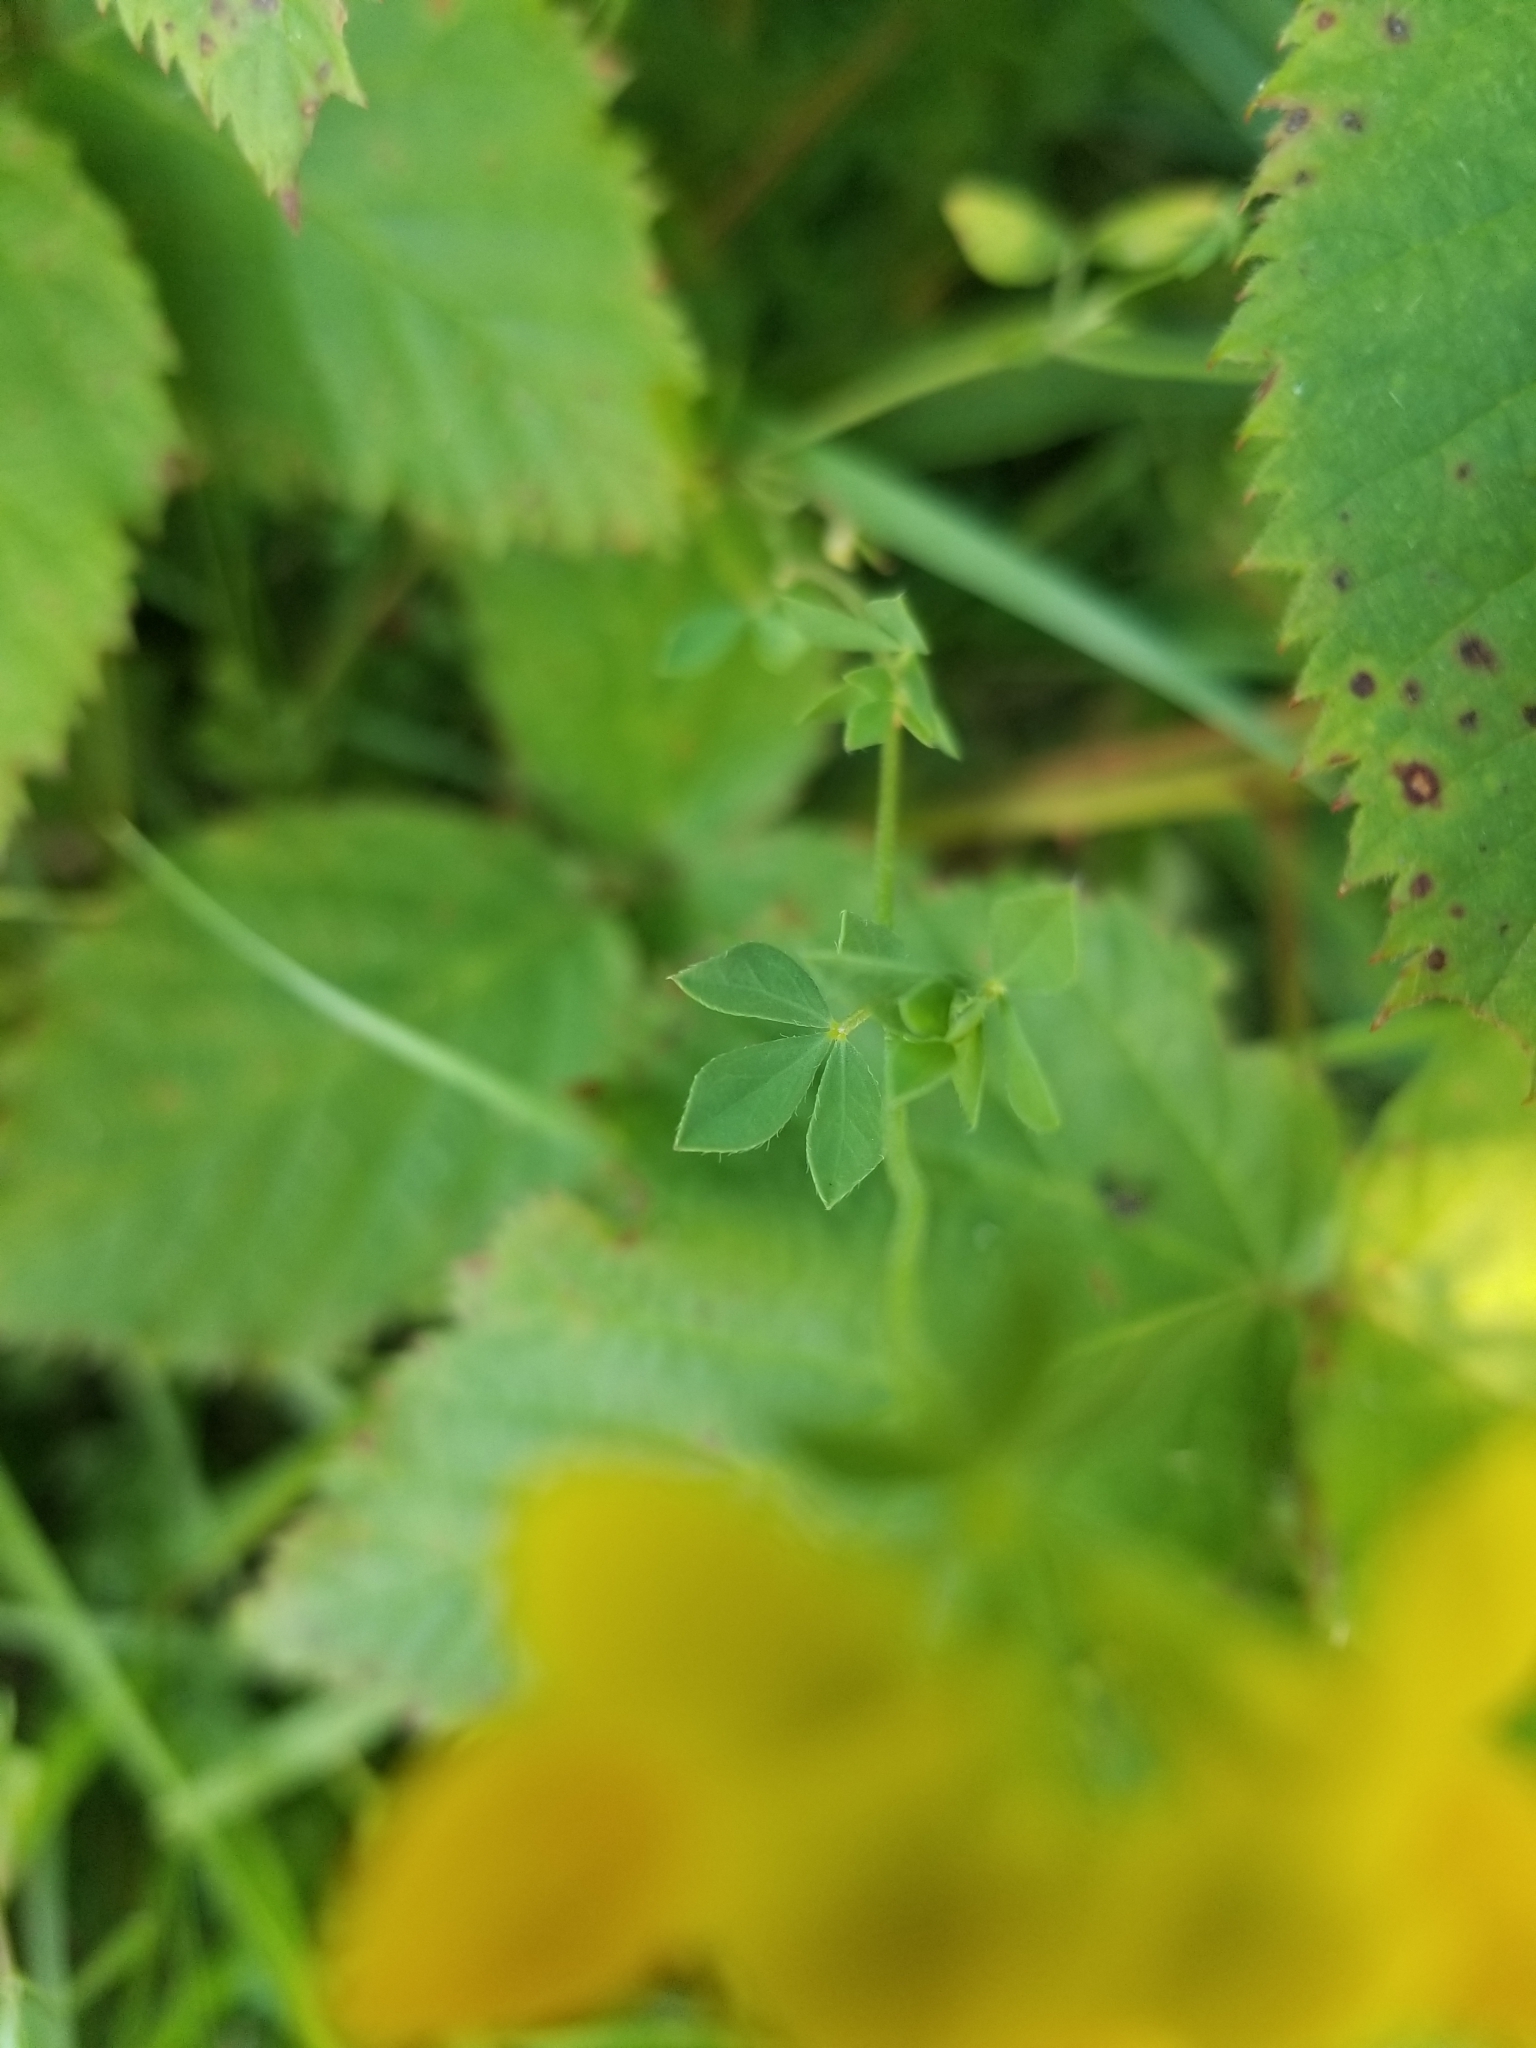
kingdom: Plantae
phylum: Tracheophyta
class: Magnoliopsida
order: Fabales
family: Fabaceae
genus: Lotus
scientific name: Lotus corniculatus
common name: Common bird's-foot-trefoil
